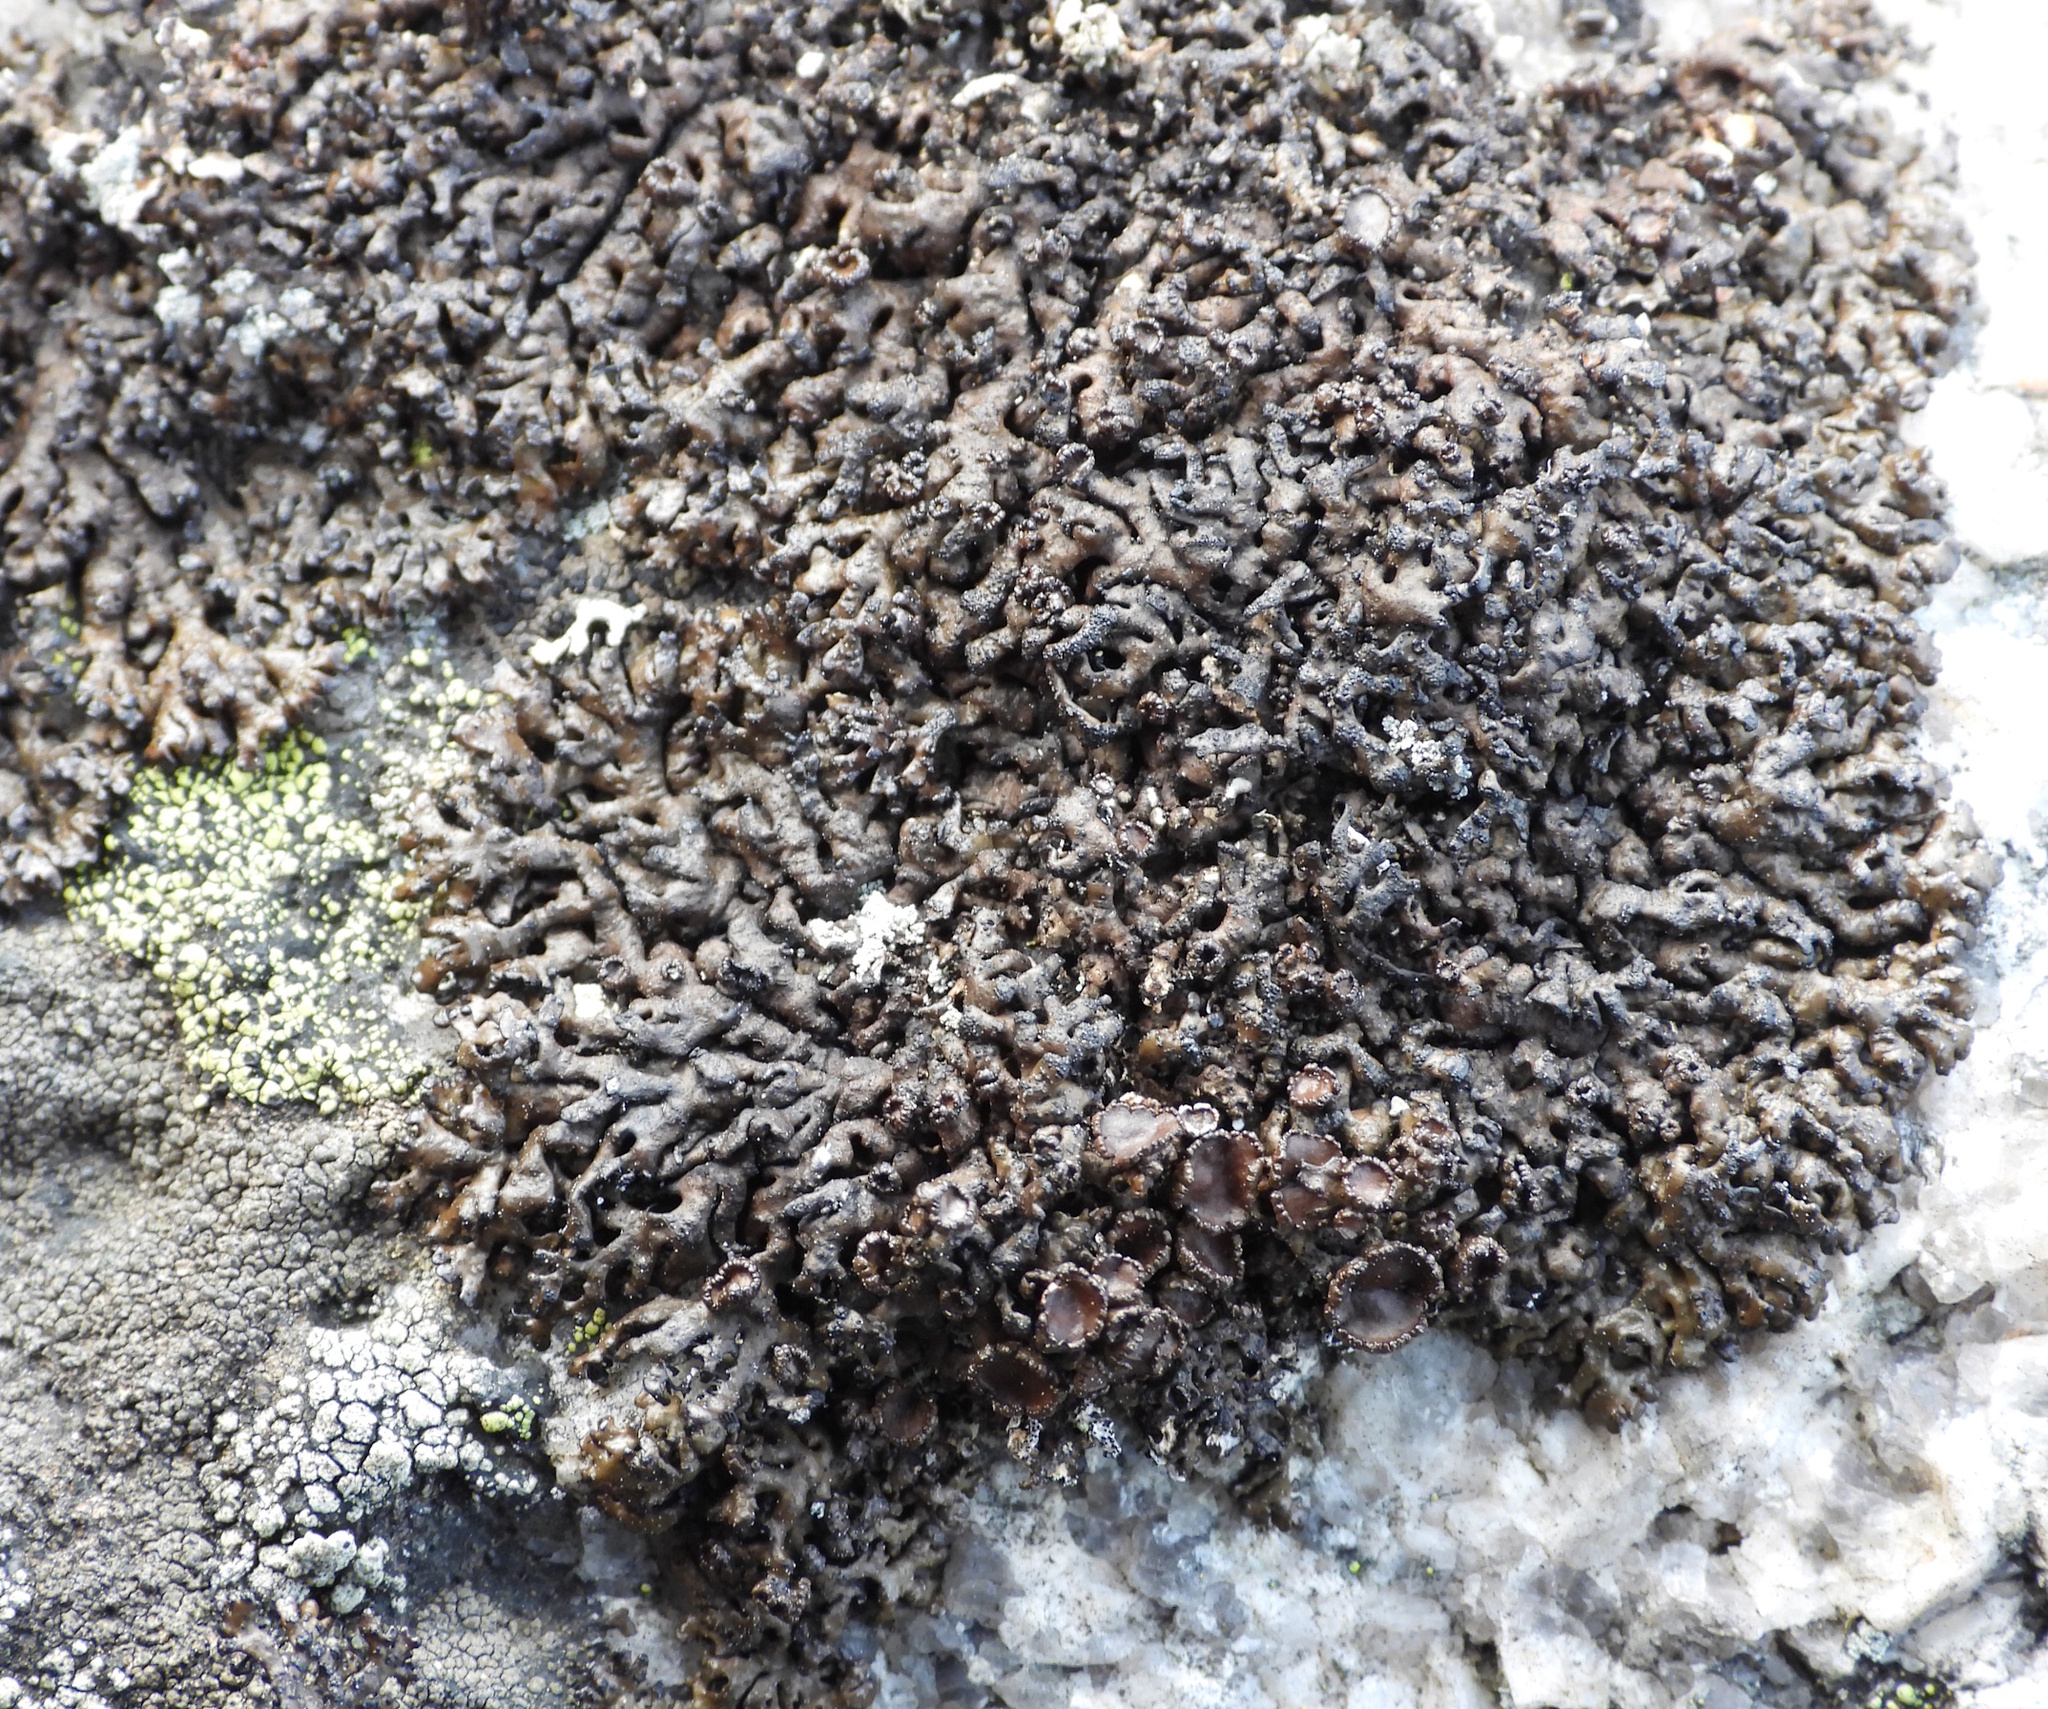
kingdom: Fungi
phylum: Ascomycota
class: Lecanoromycetes
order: Lecanorales
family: Parmeliaceae
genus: Melanelia
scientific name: Melanelia stygia
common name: Alpine camouflage lichen
